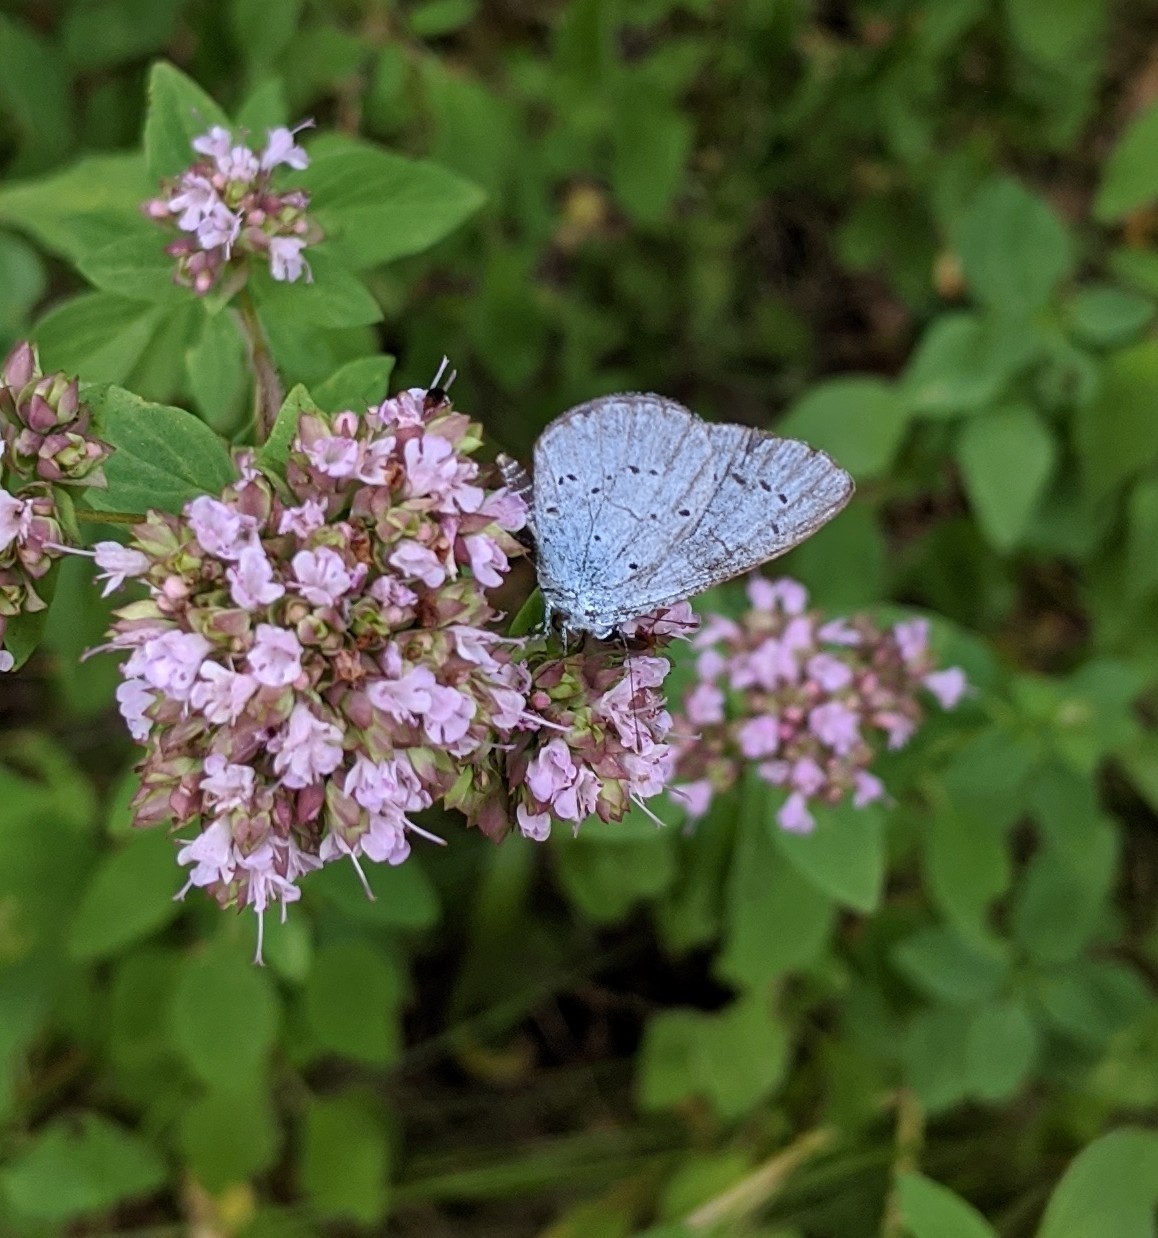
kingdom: Animalia
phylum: Arthropoda
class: Insecta
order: Lepidoptera
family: Lycaenidae
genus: Celastrina
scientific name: Celastrina argiolus
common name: Holly blue
